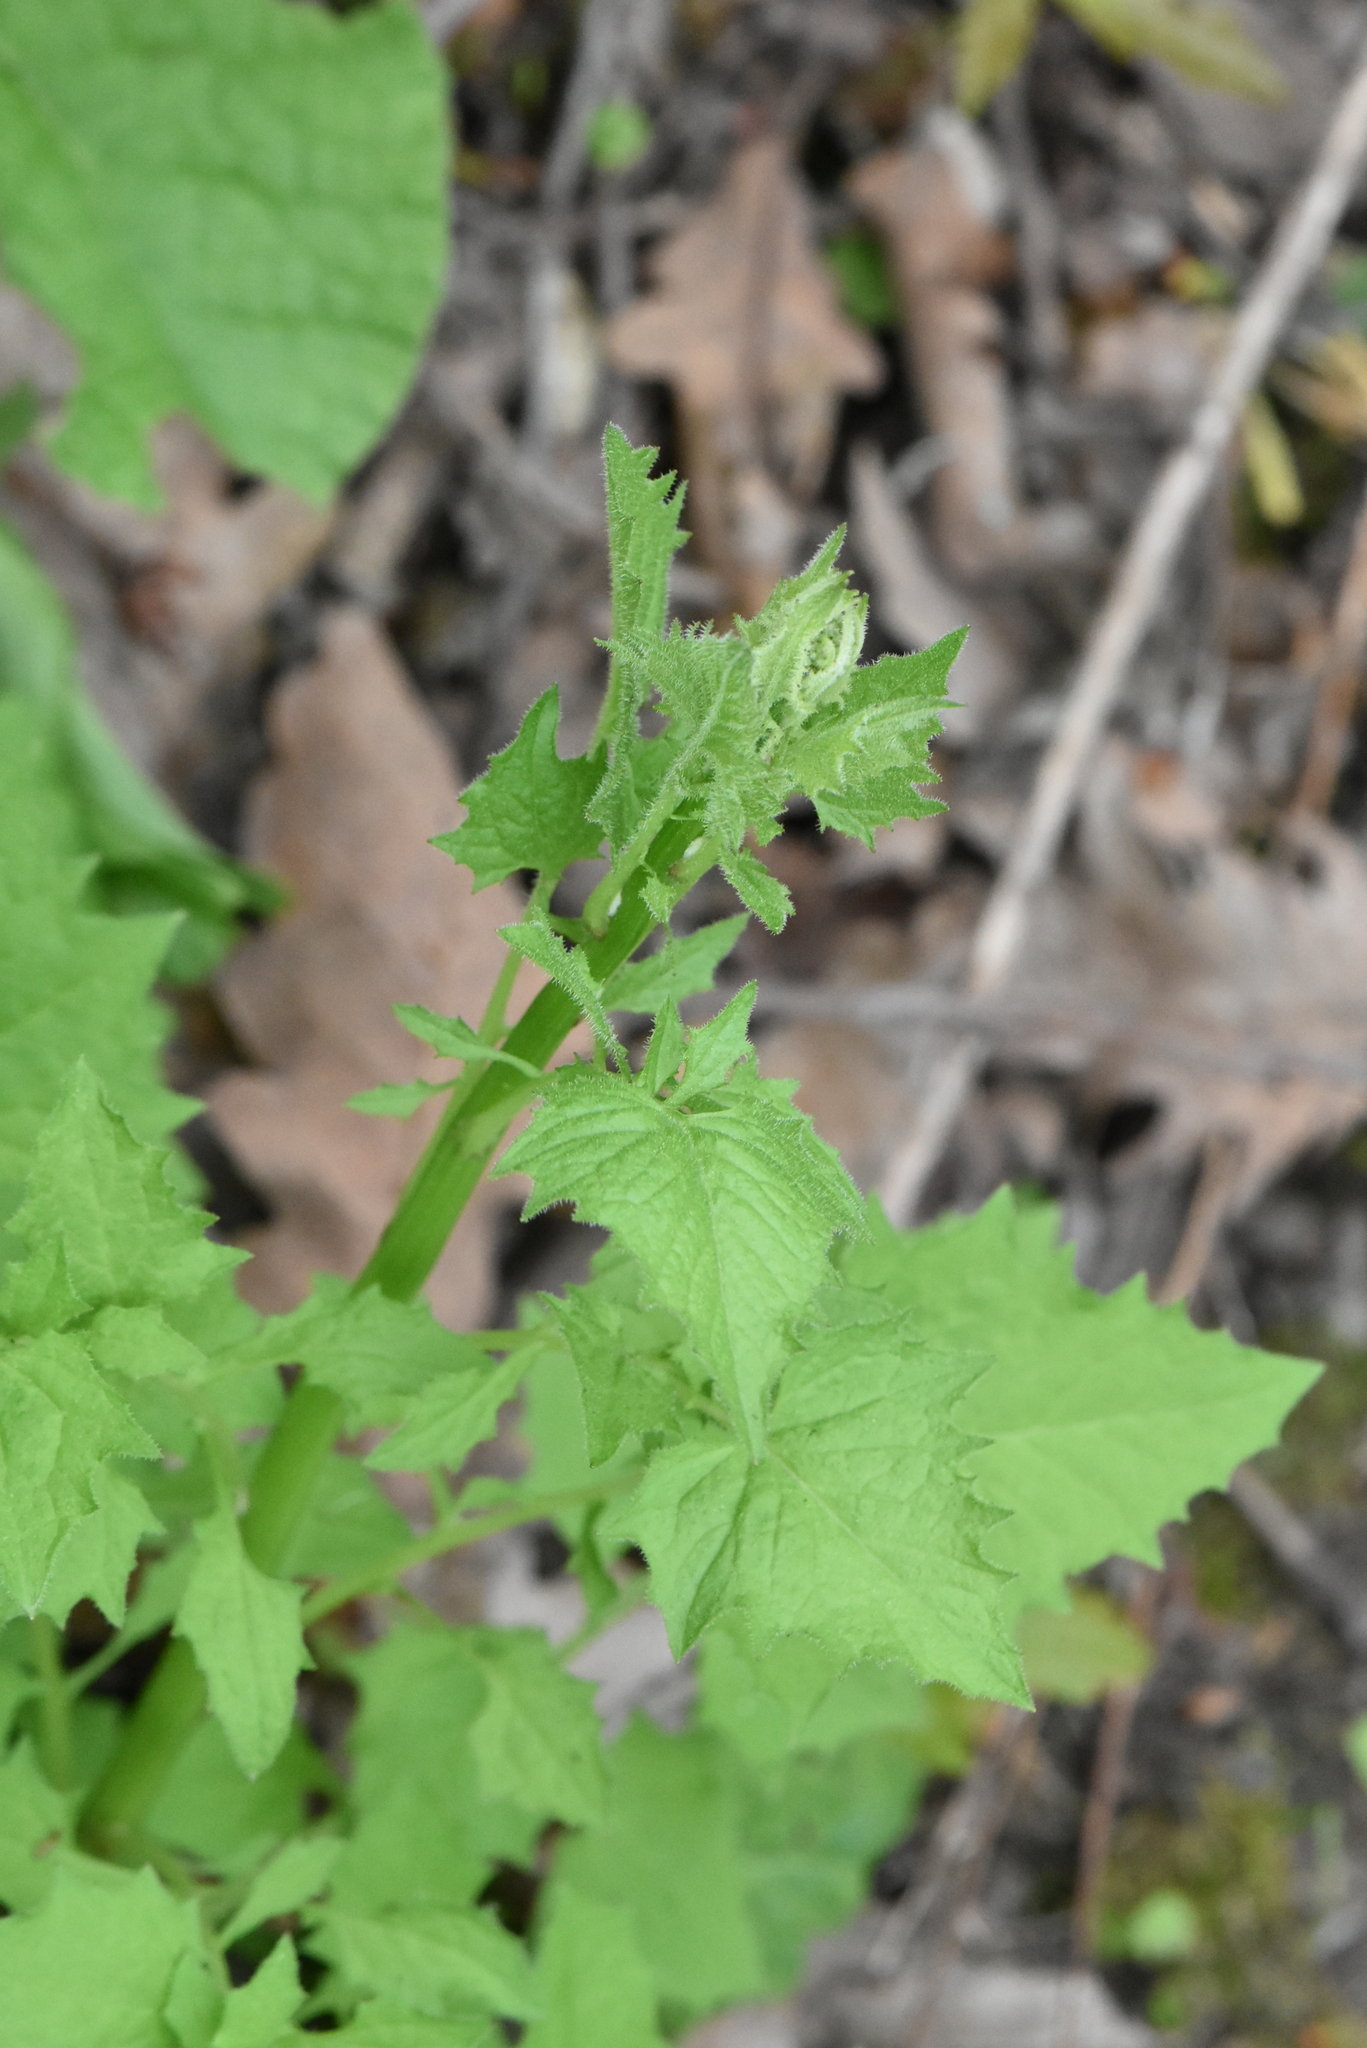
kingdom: Plantae
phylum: Tracheophyta
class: Magnoliopsida
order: Brassicales
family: Brassicaceae
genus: Alliaria
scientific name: Alliaria petiolata
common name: Garlic mustard
